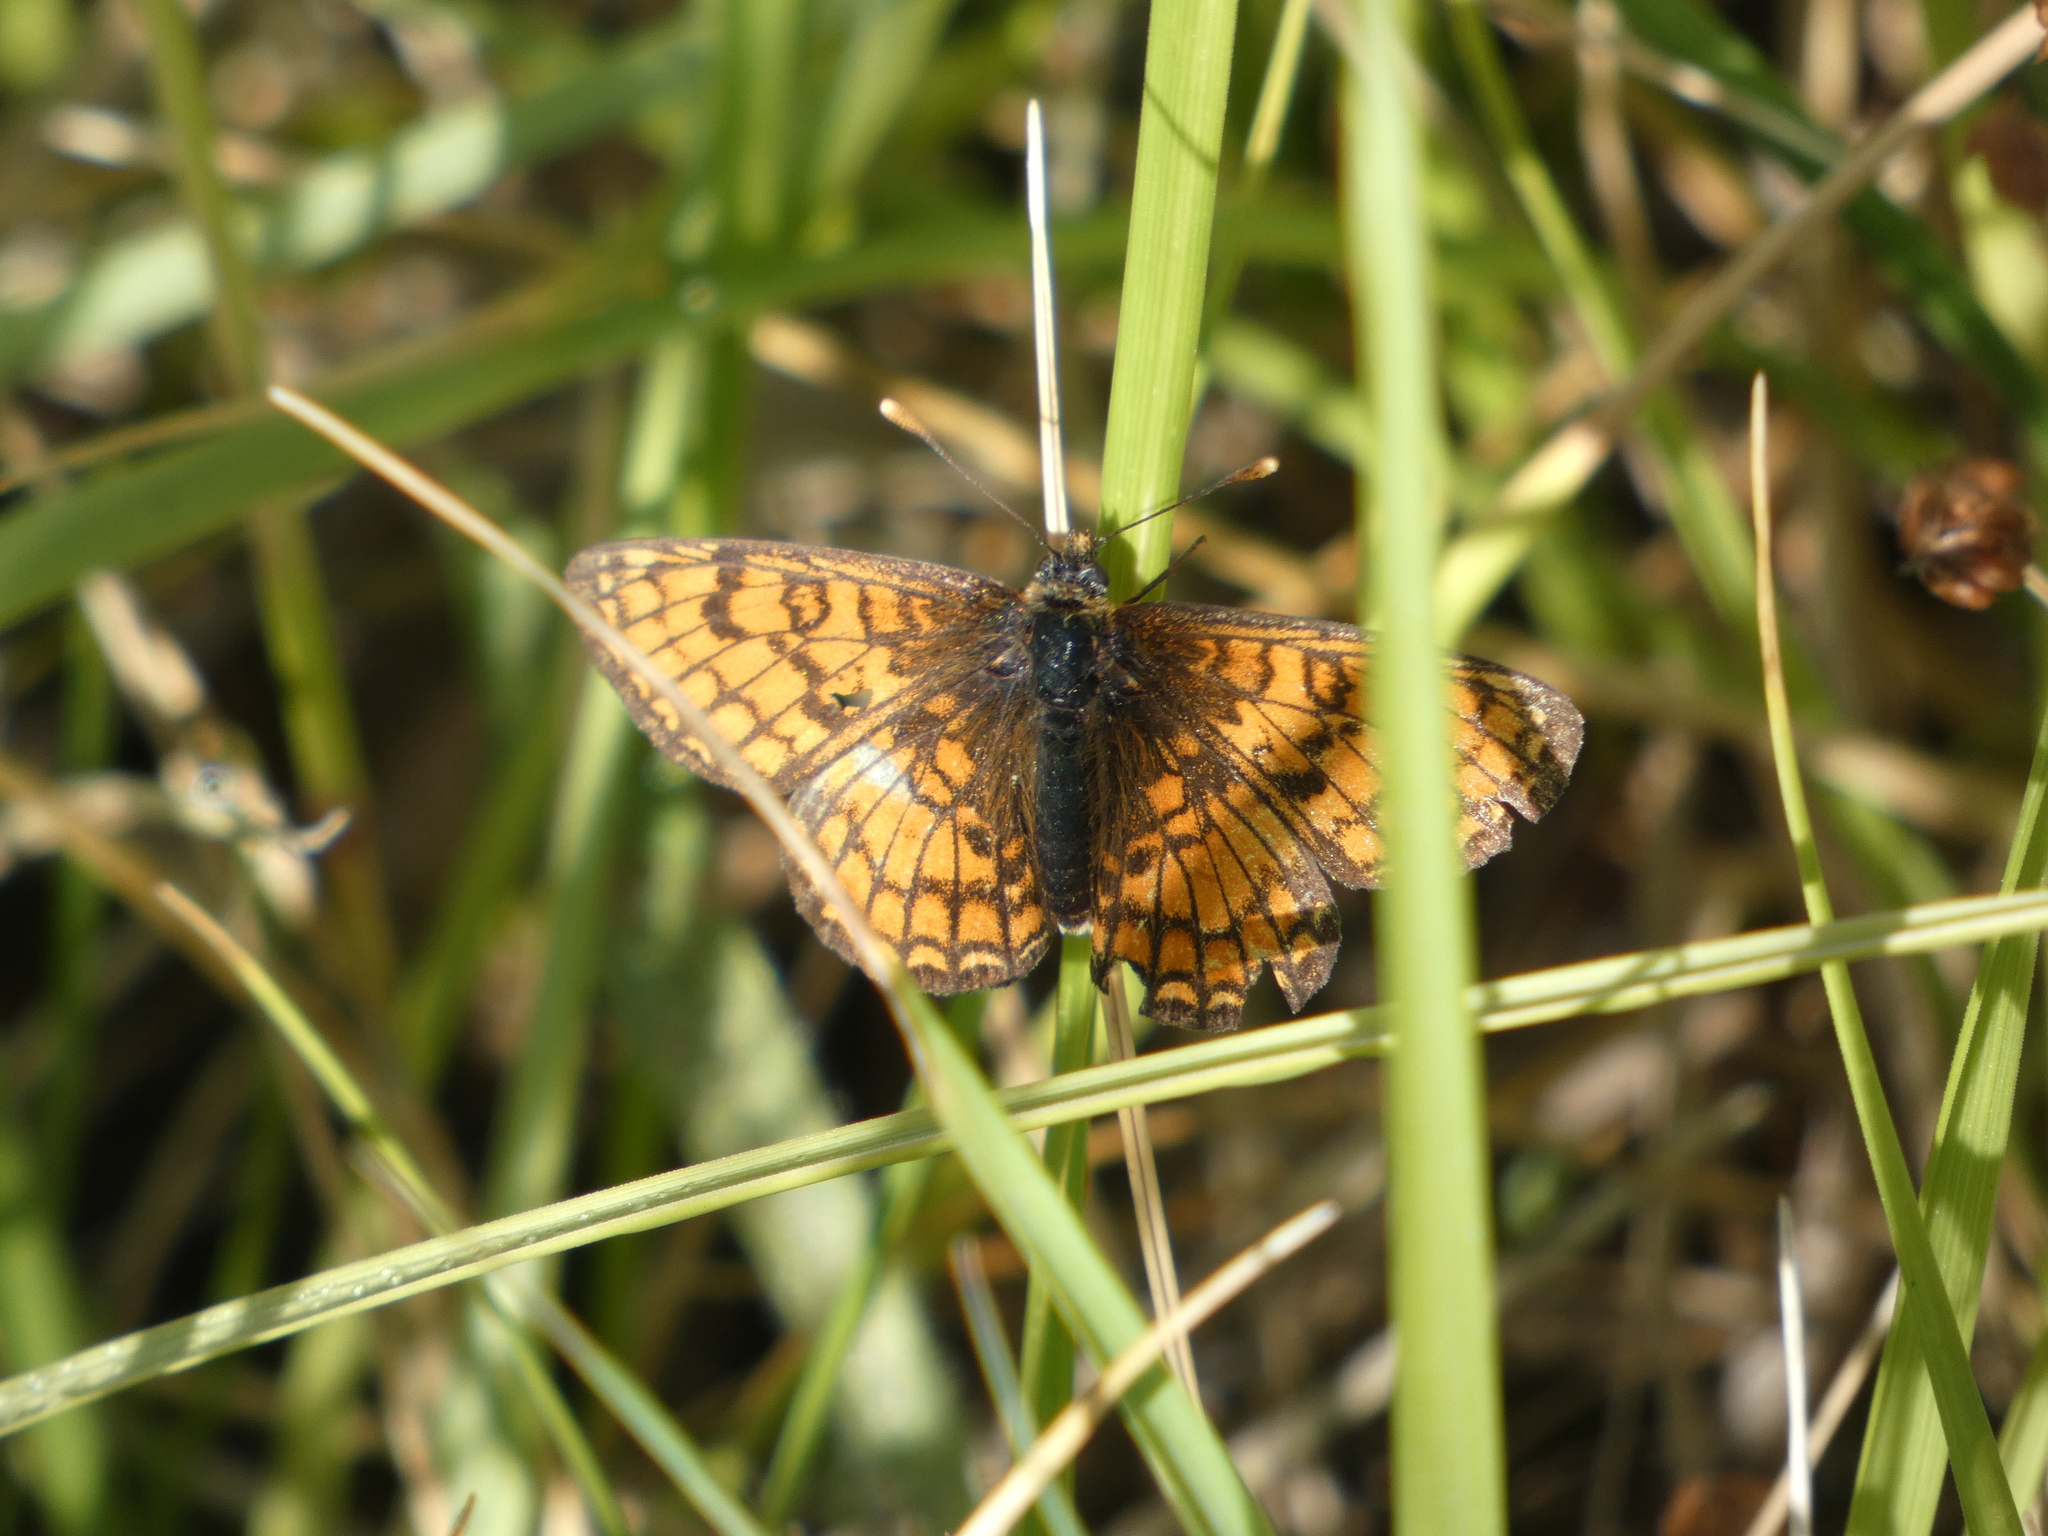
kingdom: Animalia
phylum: Arthropoda
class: Insecta
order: Lepidoptera
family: Nymphalidae
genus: Mellicta
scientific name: Mellicta parthenoides
